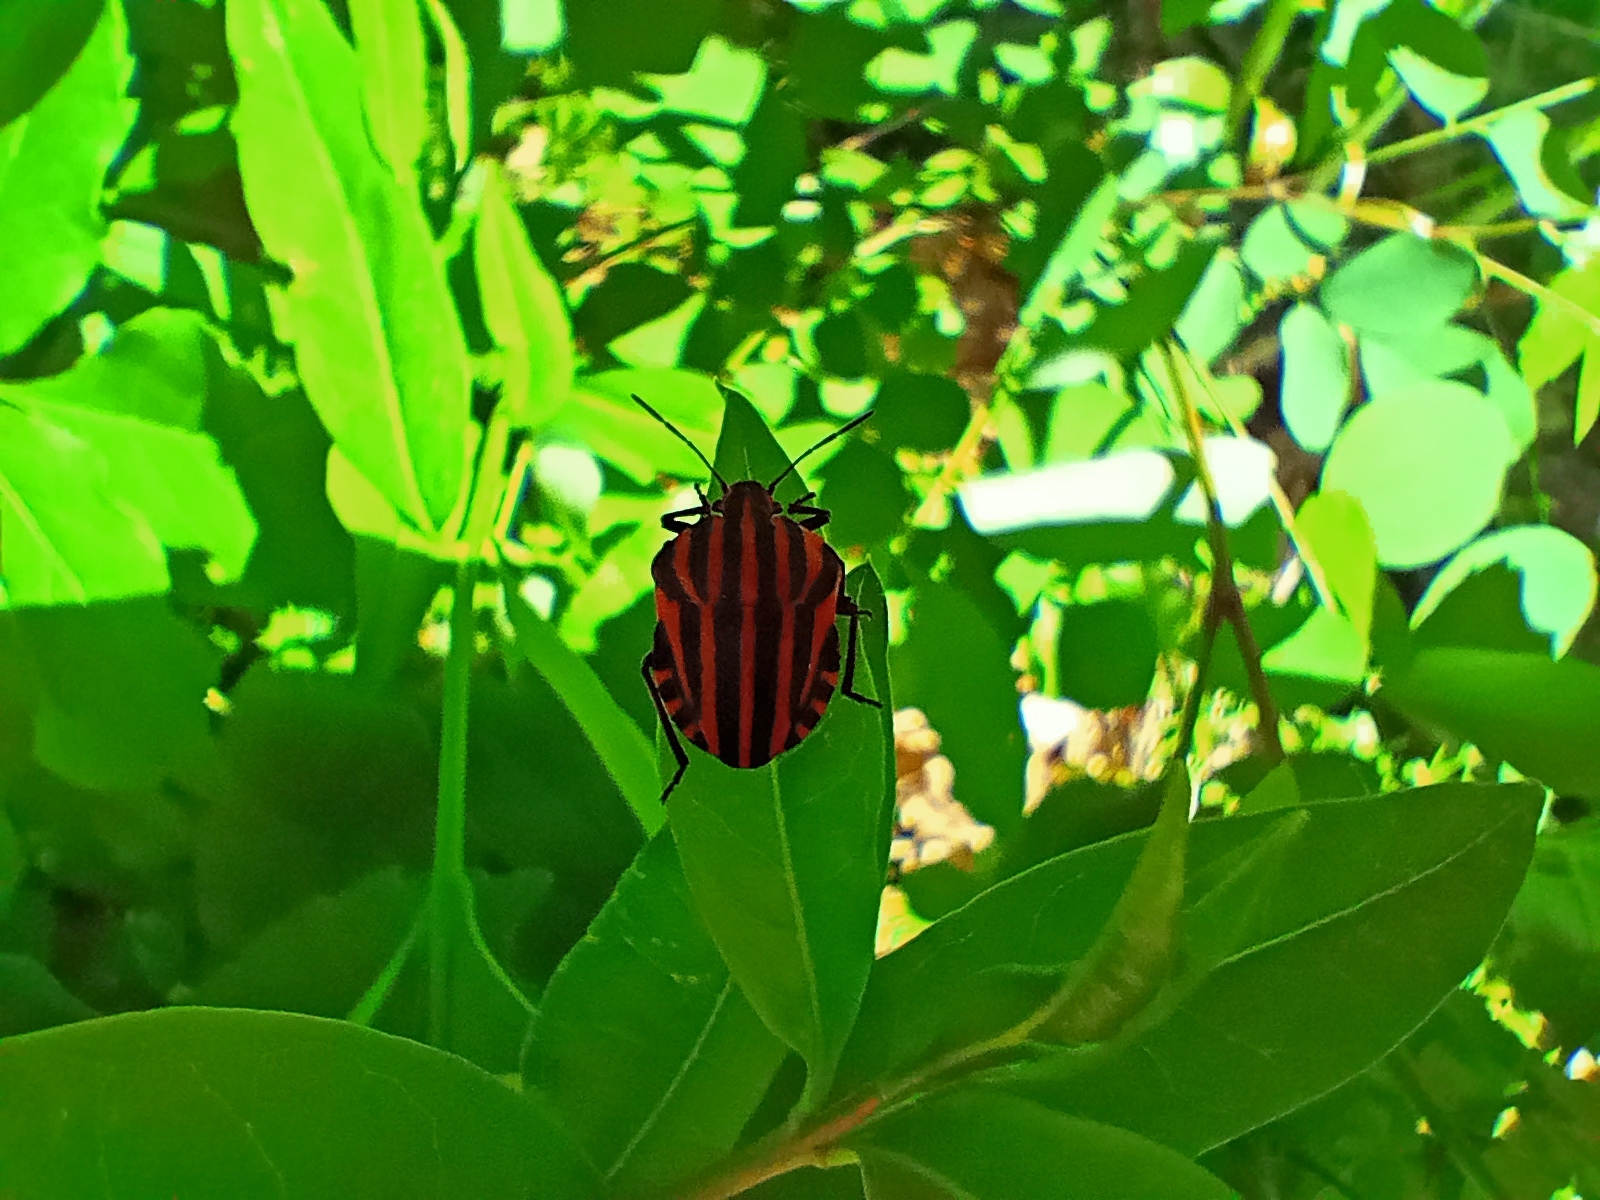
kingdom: Animalia
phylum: Arthropoda
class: Insecta
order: Hemiptera
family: Pentatomidae
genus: Graphosoma
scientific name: Graphosoma italicum
